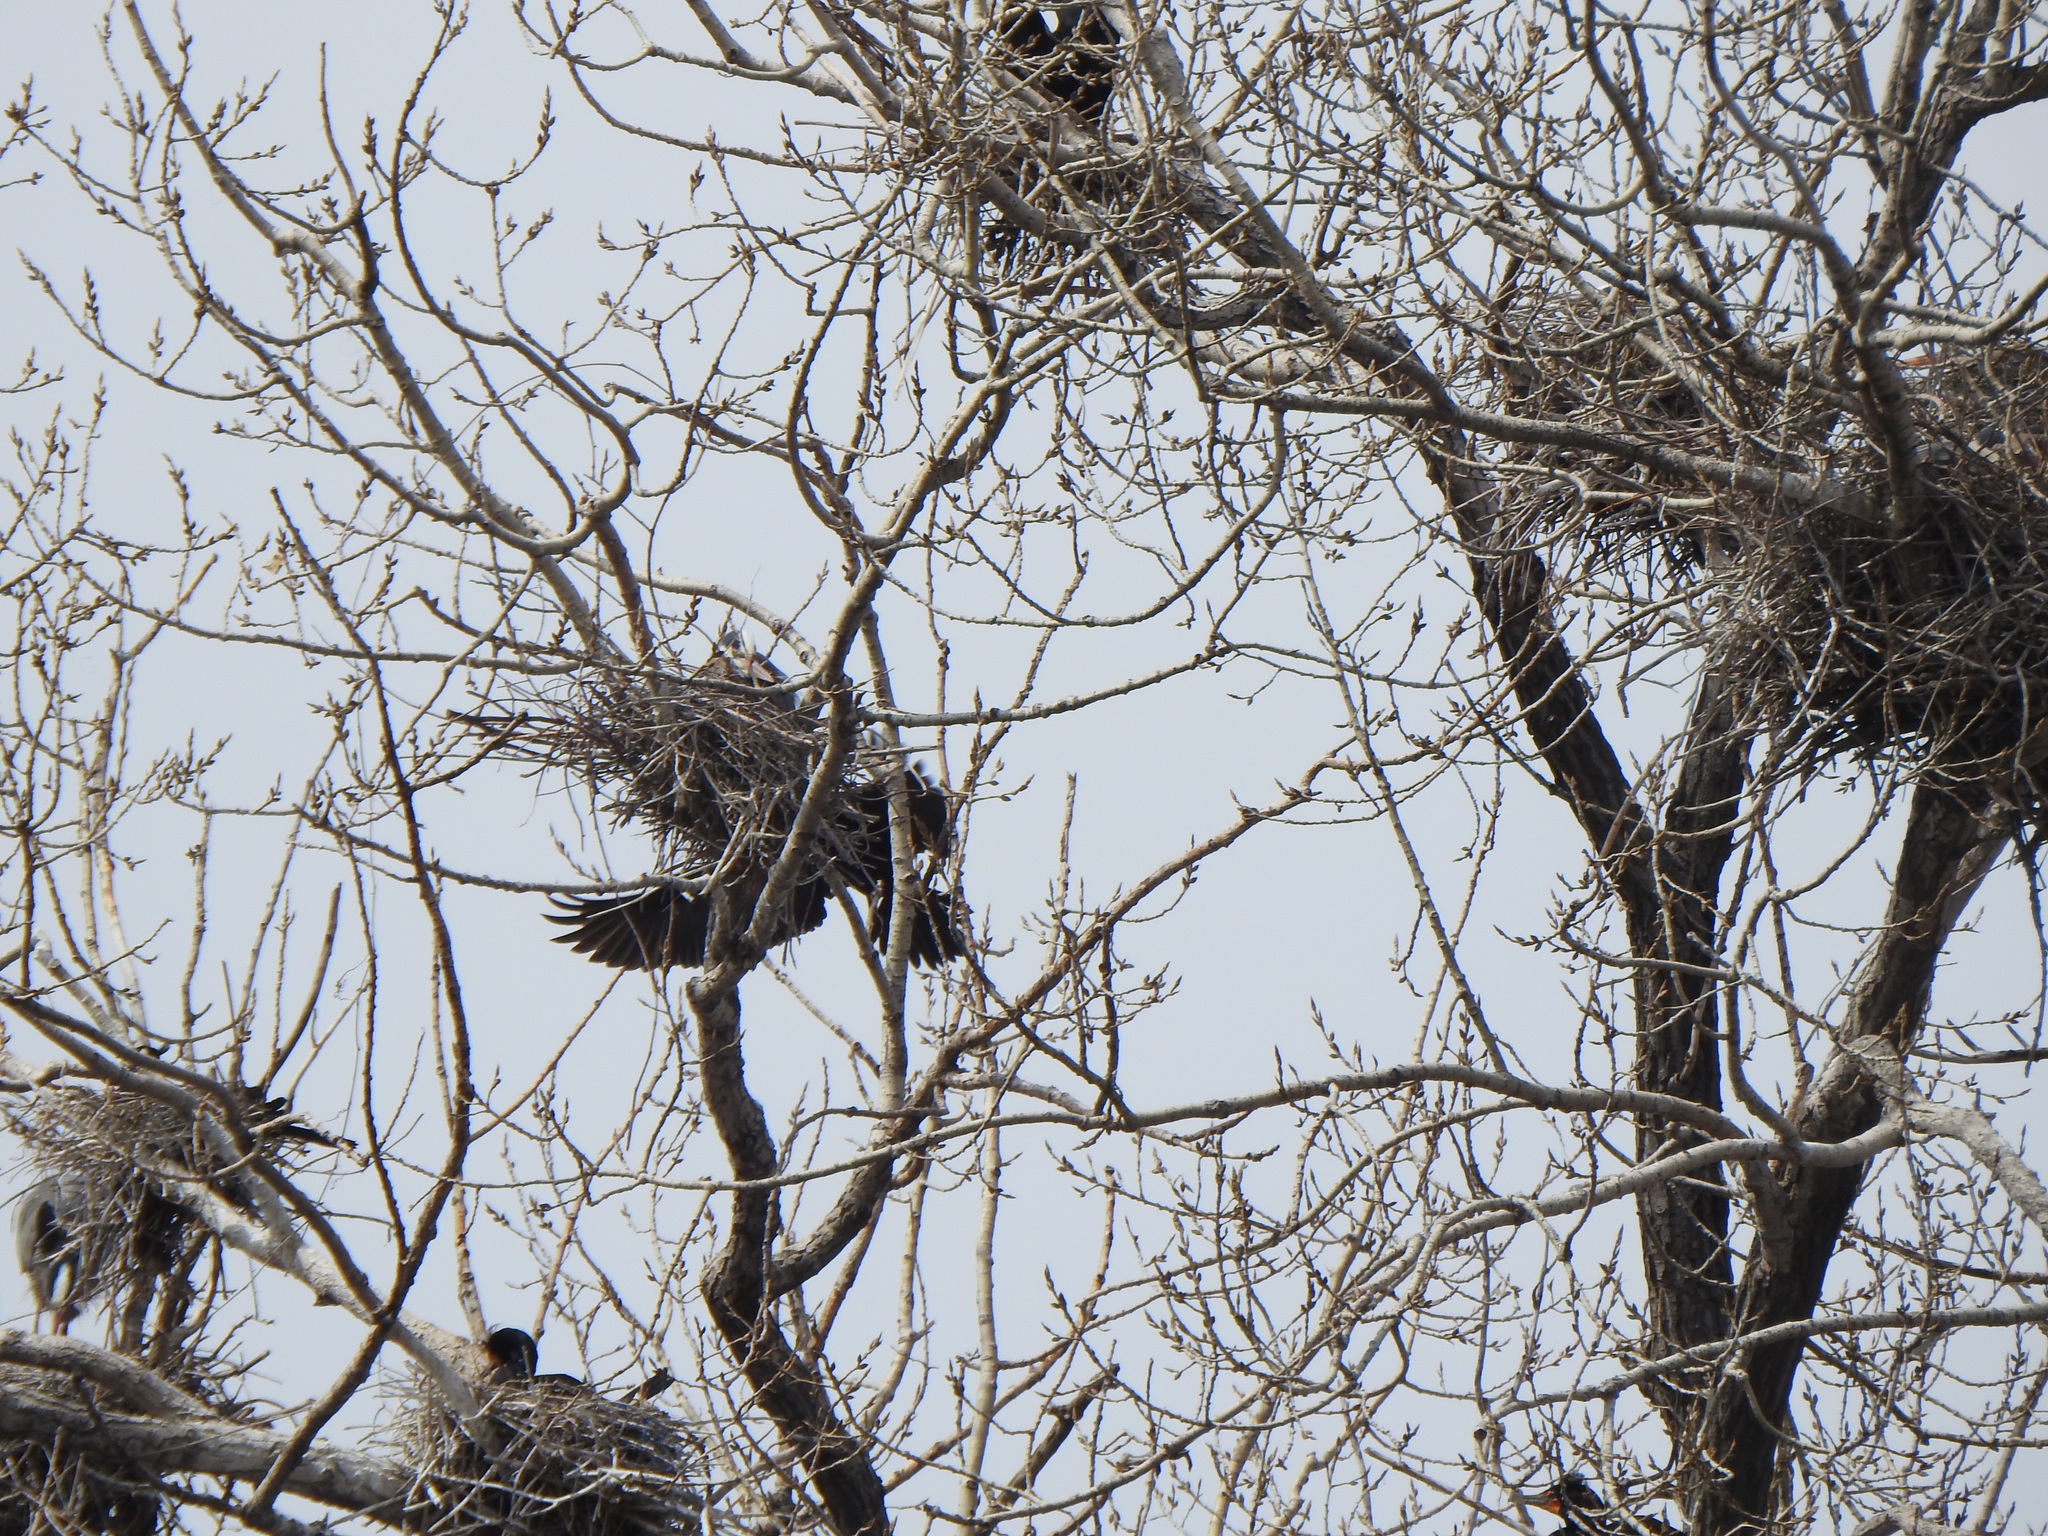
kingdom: Animalia
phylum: Chordata
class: Aves
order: Suliformes
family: Phalacrocoracidae
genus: Phalacrocorax
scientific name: Phalacrocorax auritus
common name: Double-crested cormorant
